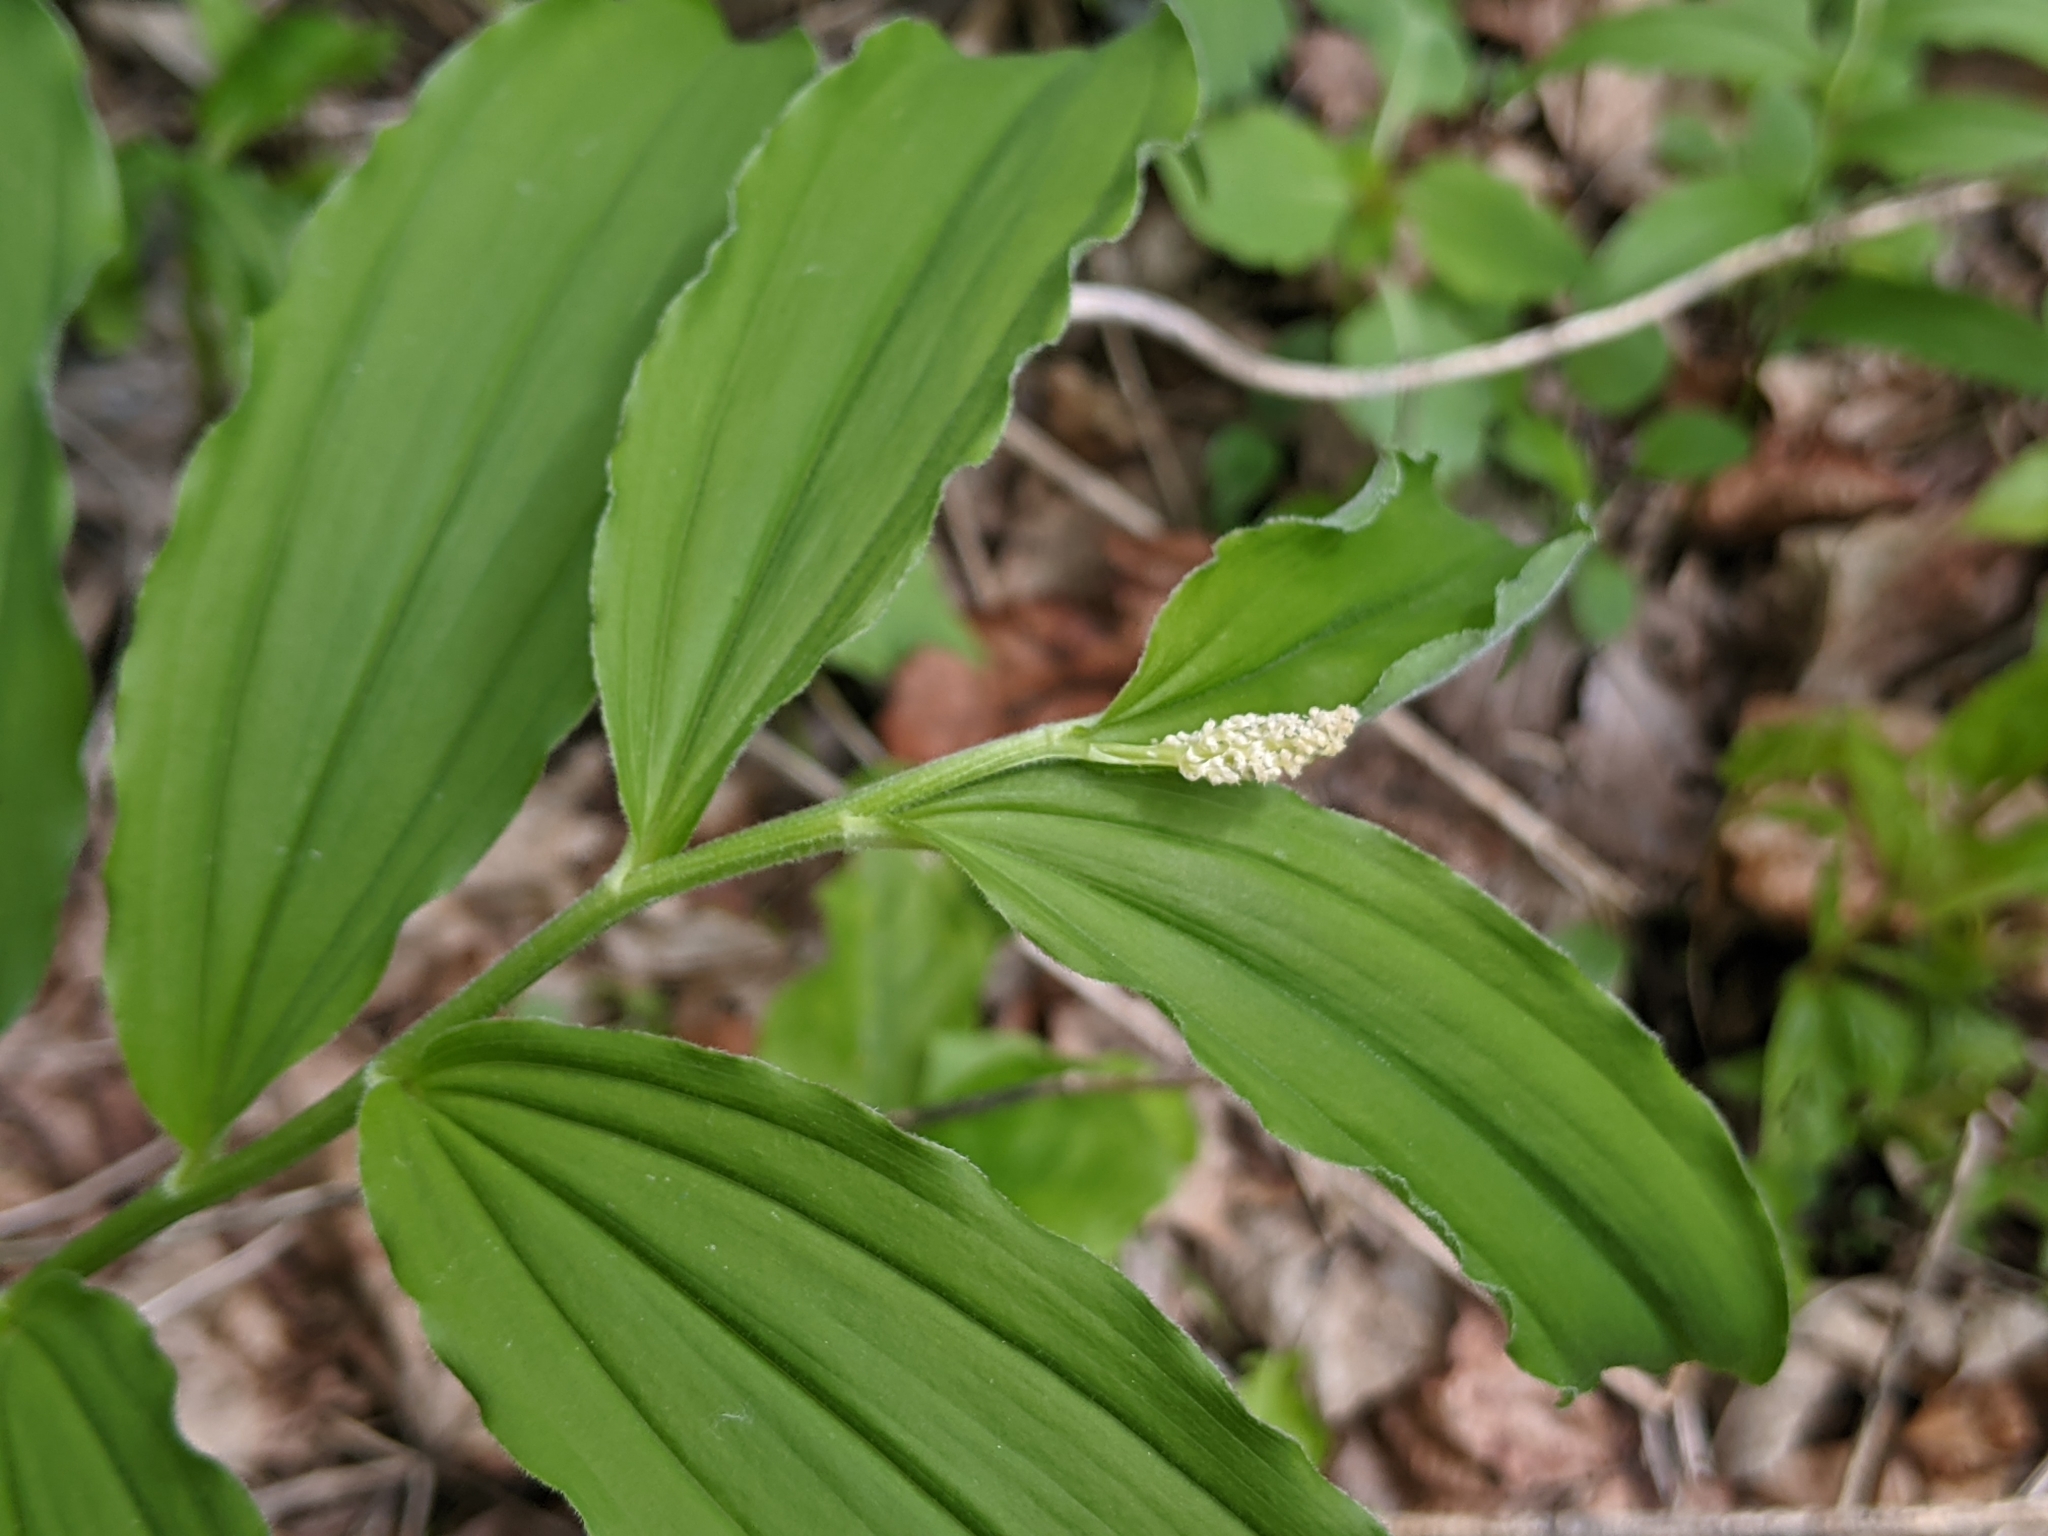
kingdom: Plantae
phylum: Tracheophyta
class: Liliopsida
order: Asparagales
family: Asparagaceae
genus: Maianthemum
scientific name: Maianthemum racemosum
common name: False spikenard
